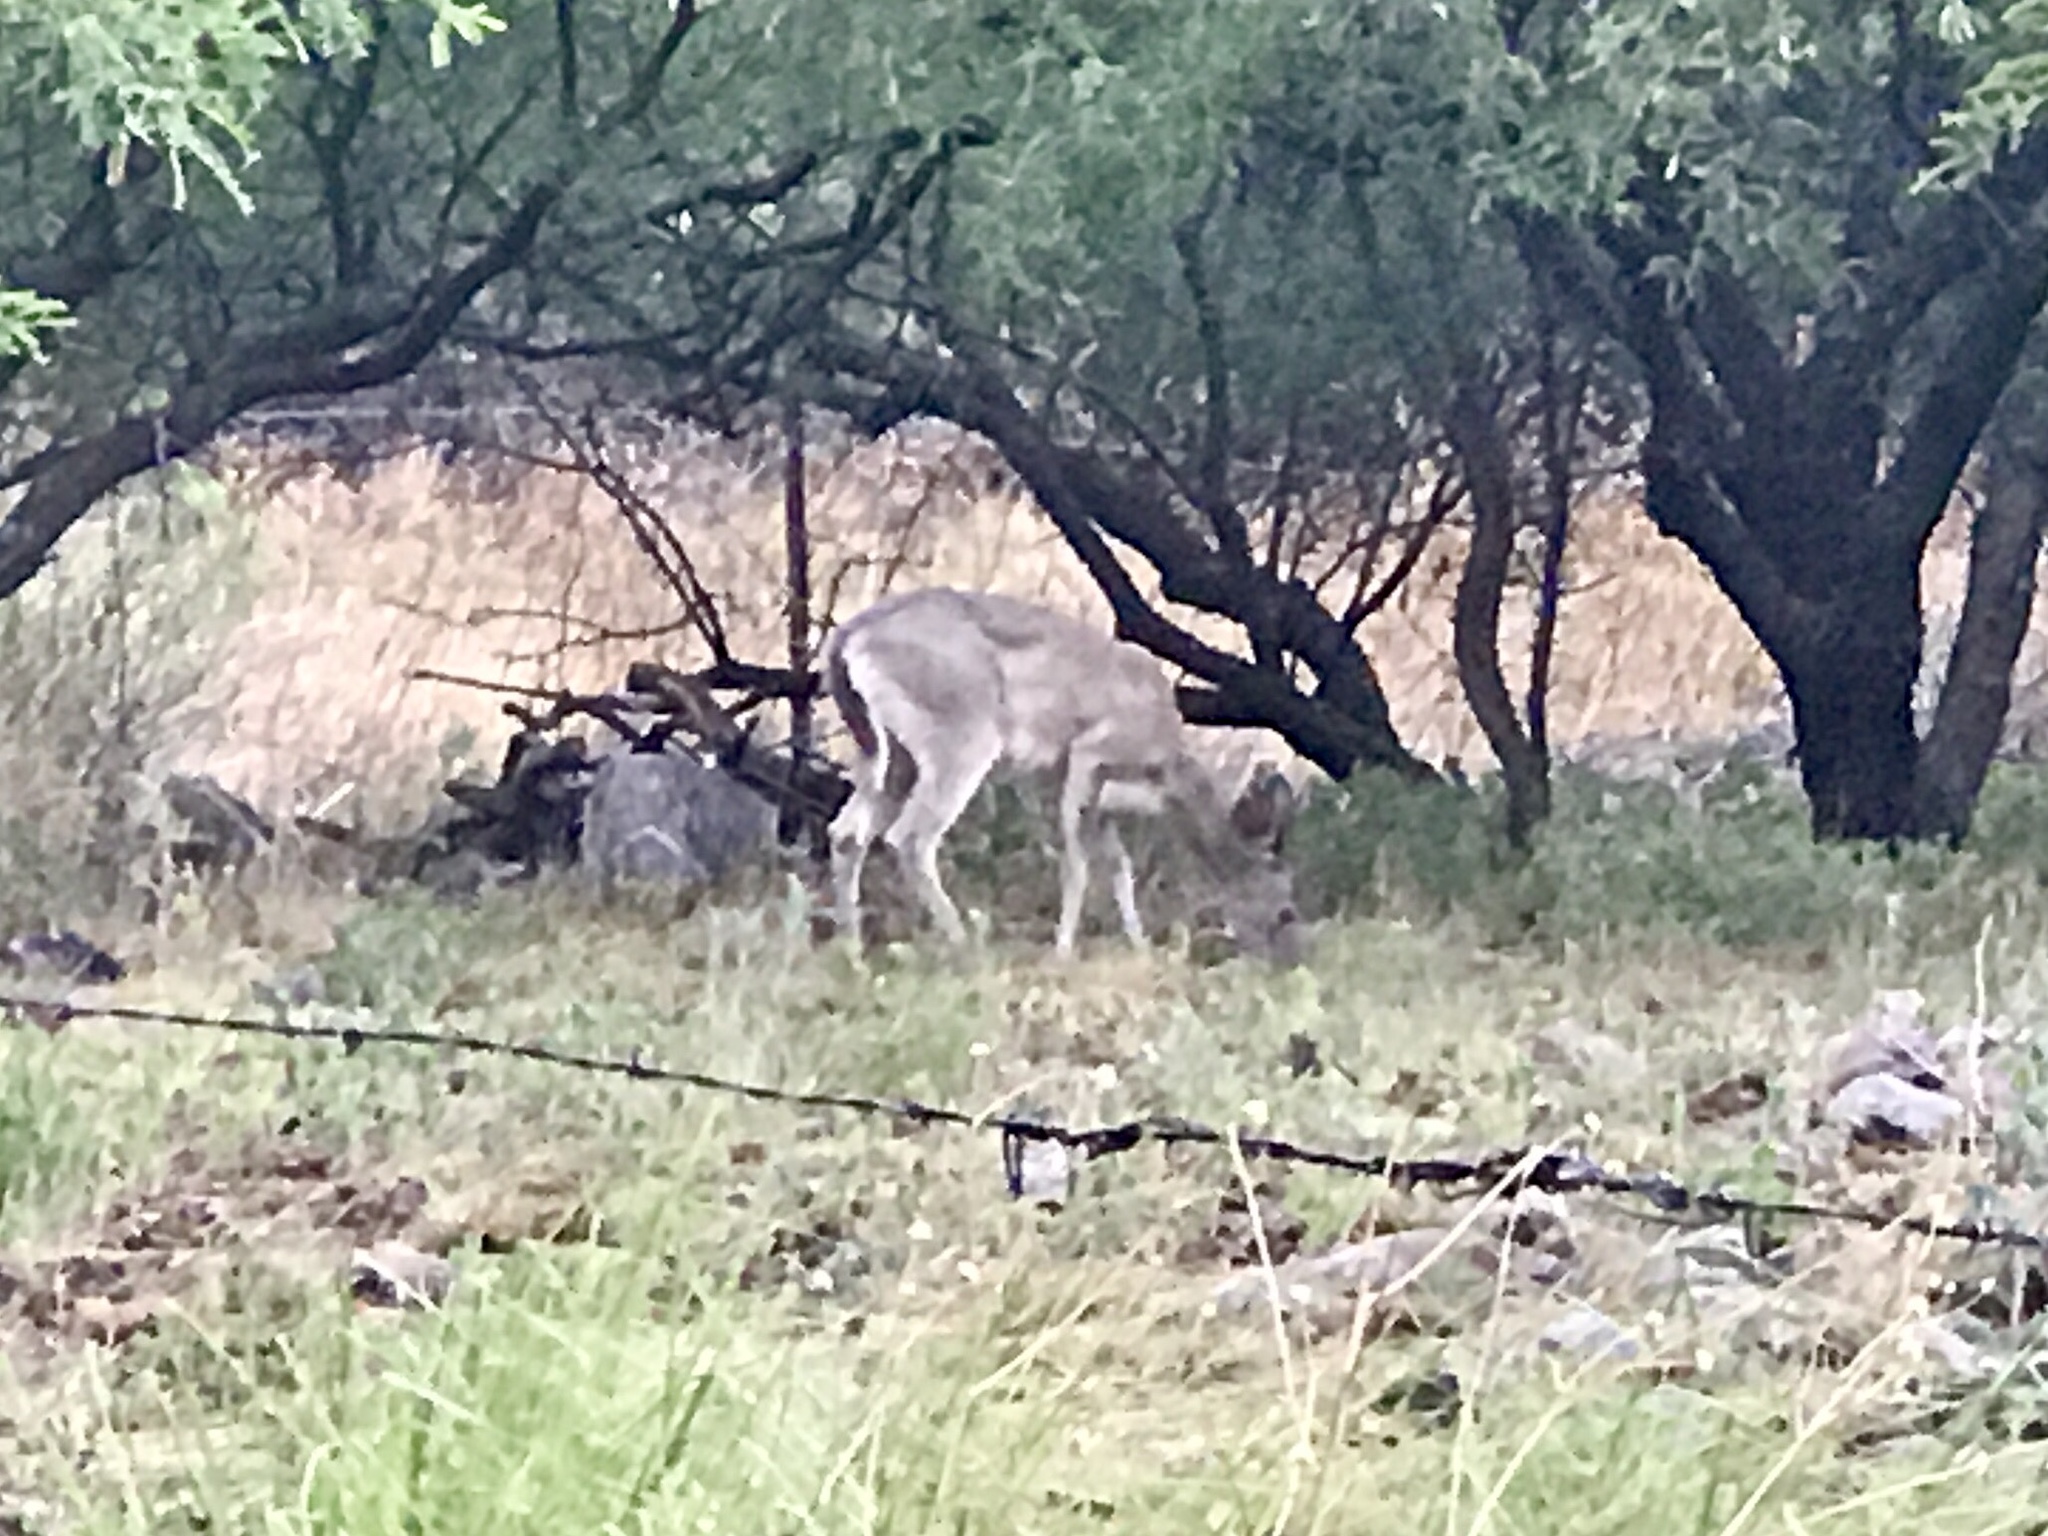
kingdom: Animalia
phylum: Chordata
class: Mammalia
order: Artiodactyla
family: Cervidae
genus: Odocoileus
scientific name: Odocoileus virginianus
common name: White-tailed deer
